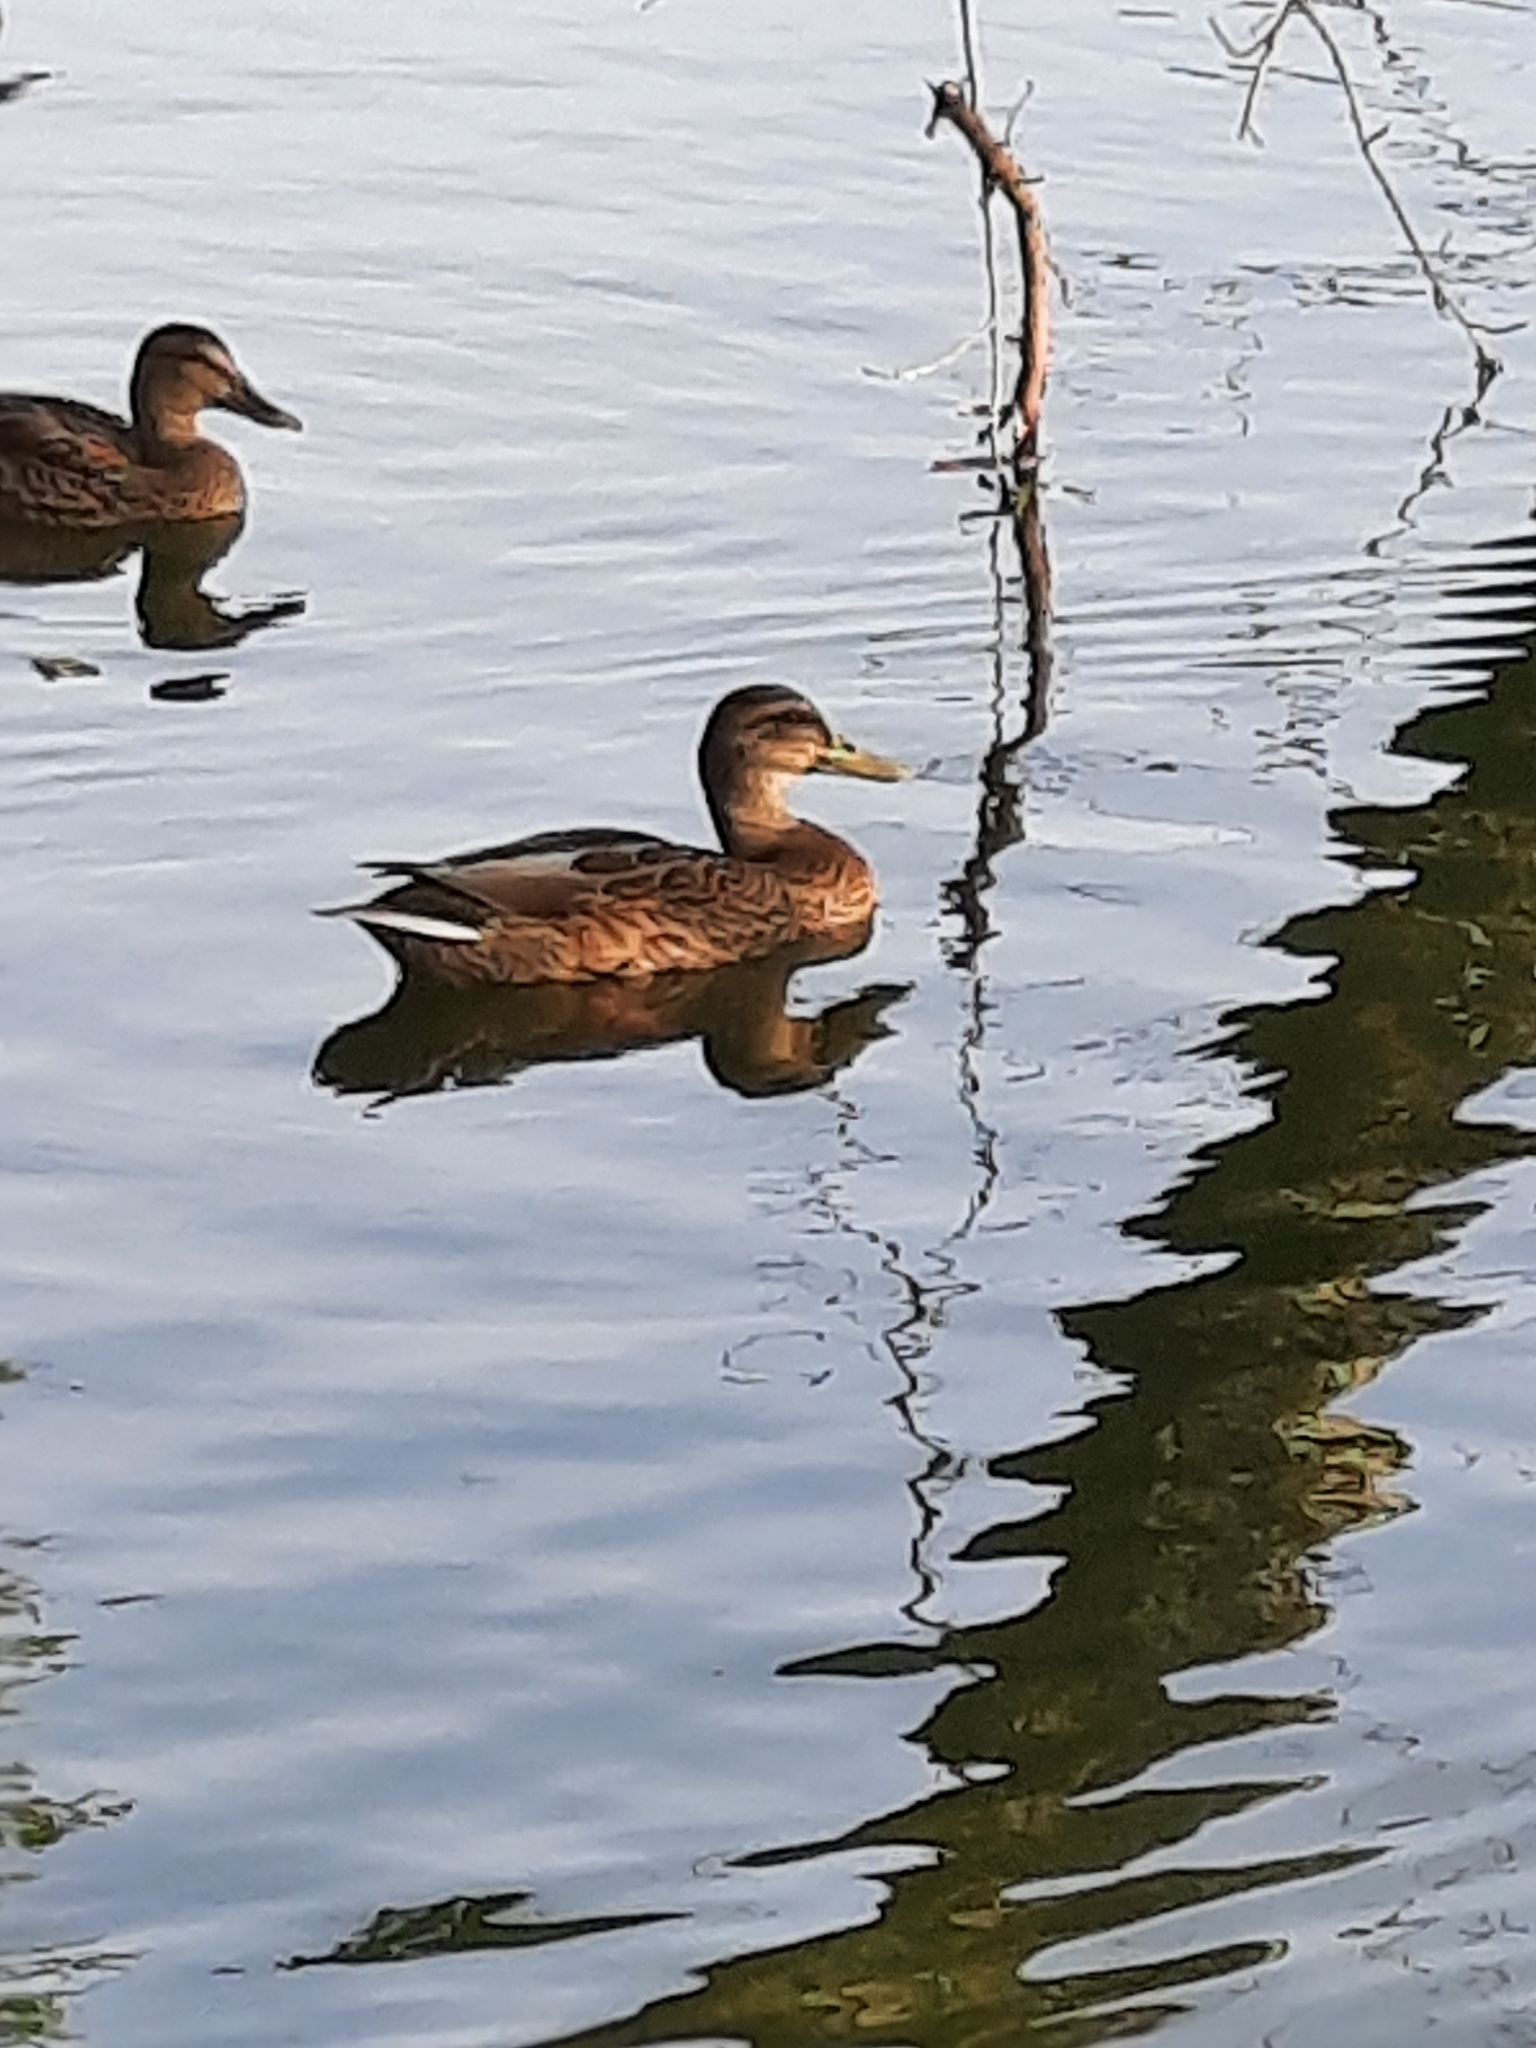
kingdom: Animalia
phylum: Chordata
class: Aves
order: Anseriformes
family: Anatidae
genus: Anas
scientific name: Anas platyrhynchos
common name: Mallard
